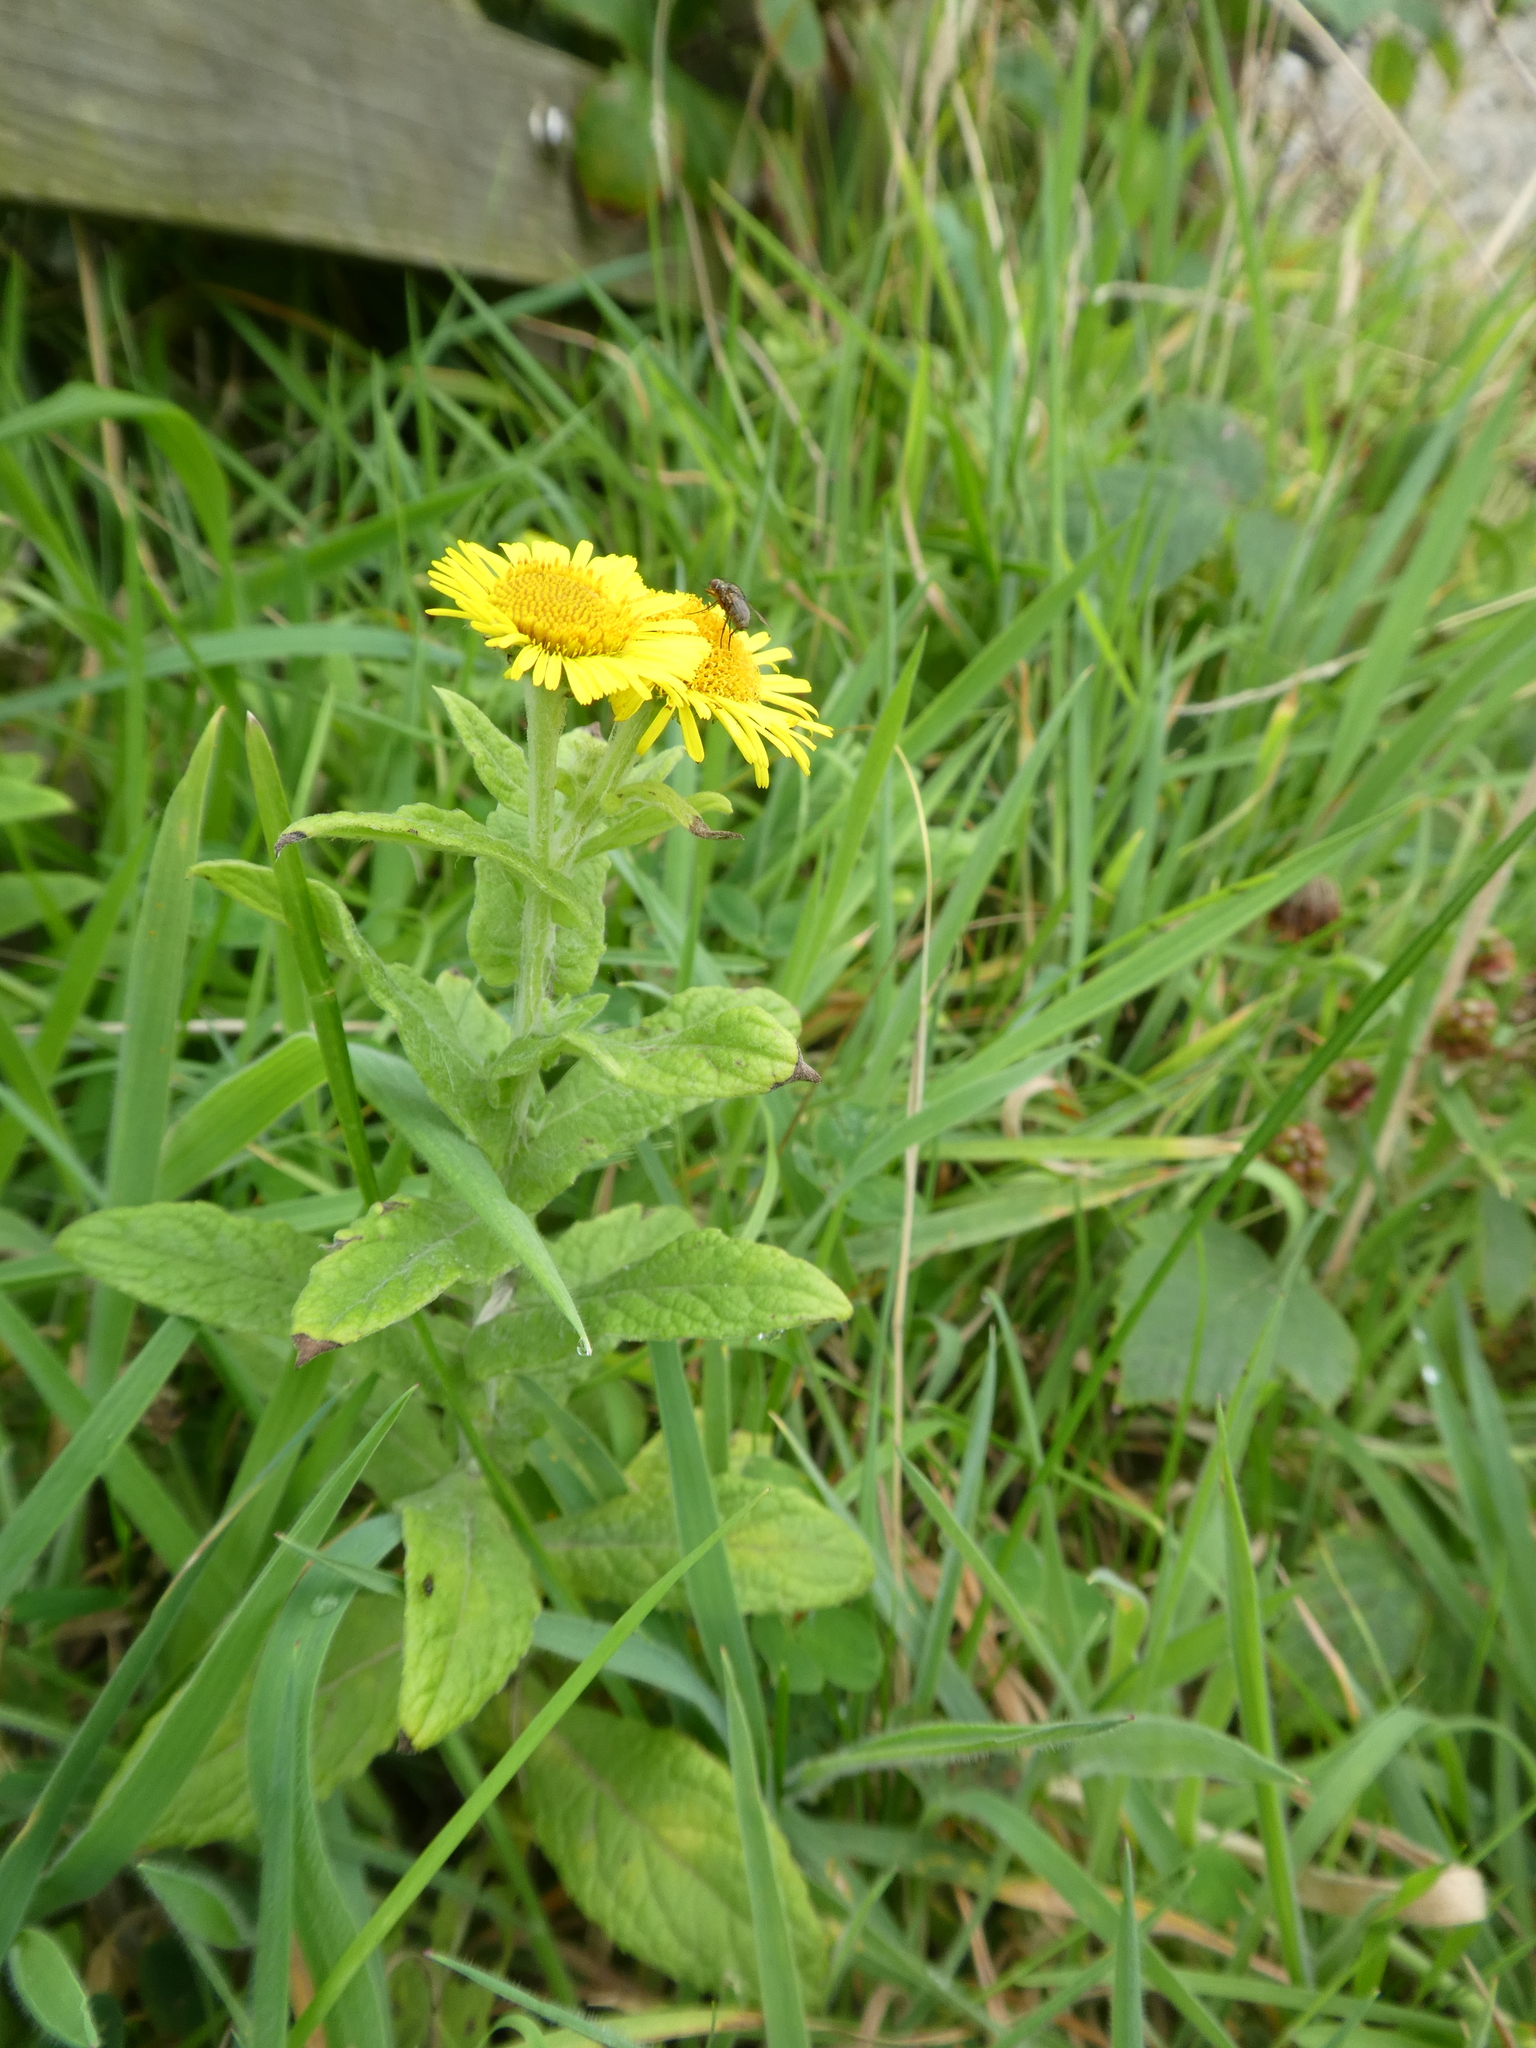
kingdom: Plantae
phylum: Tracheophyta
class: Magnoliopsida
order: Asterales
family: Asteraceae
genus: Pulicaria
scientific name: Pulicaria dysenterica
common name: Common fleabane
